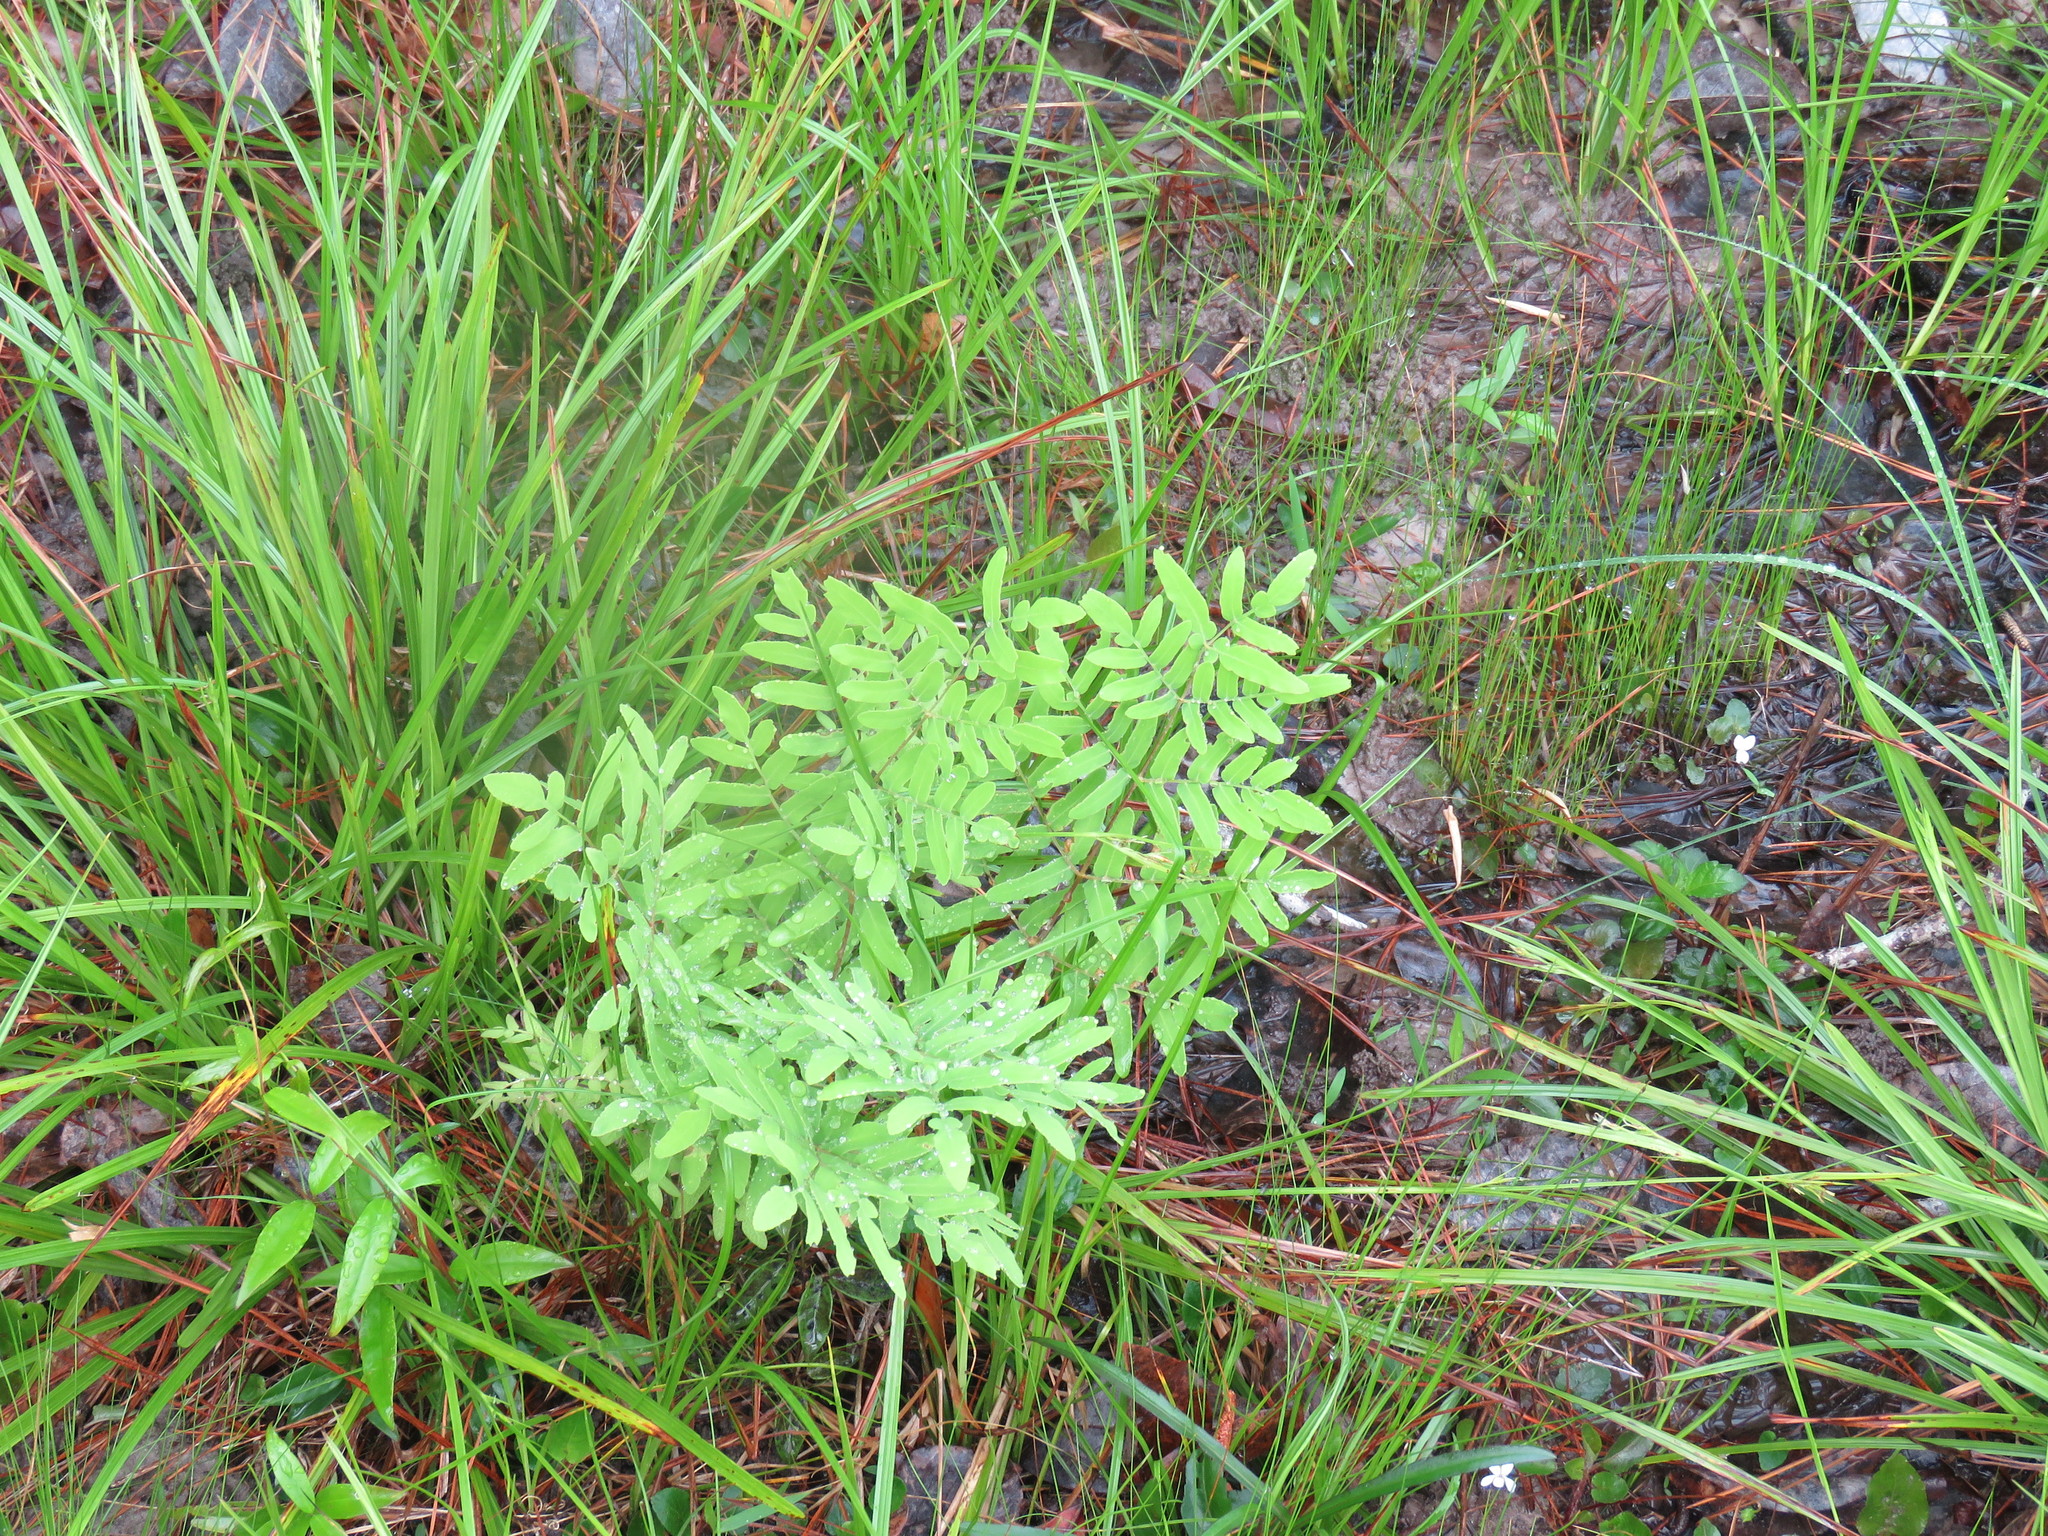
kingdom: Plantae
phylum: Tracheophyta
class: Polypodiopsida
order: Osmundales
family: Osmundaceae
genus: Osmunda
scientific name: Osmunda spectabilis
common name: American royal fern
